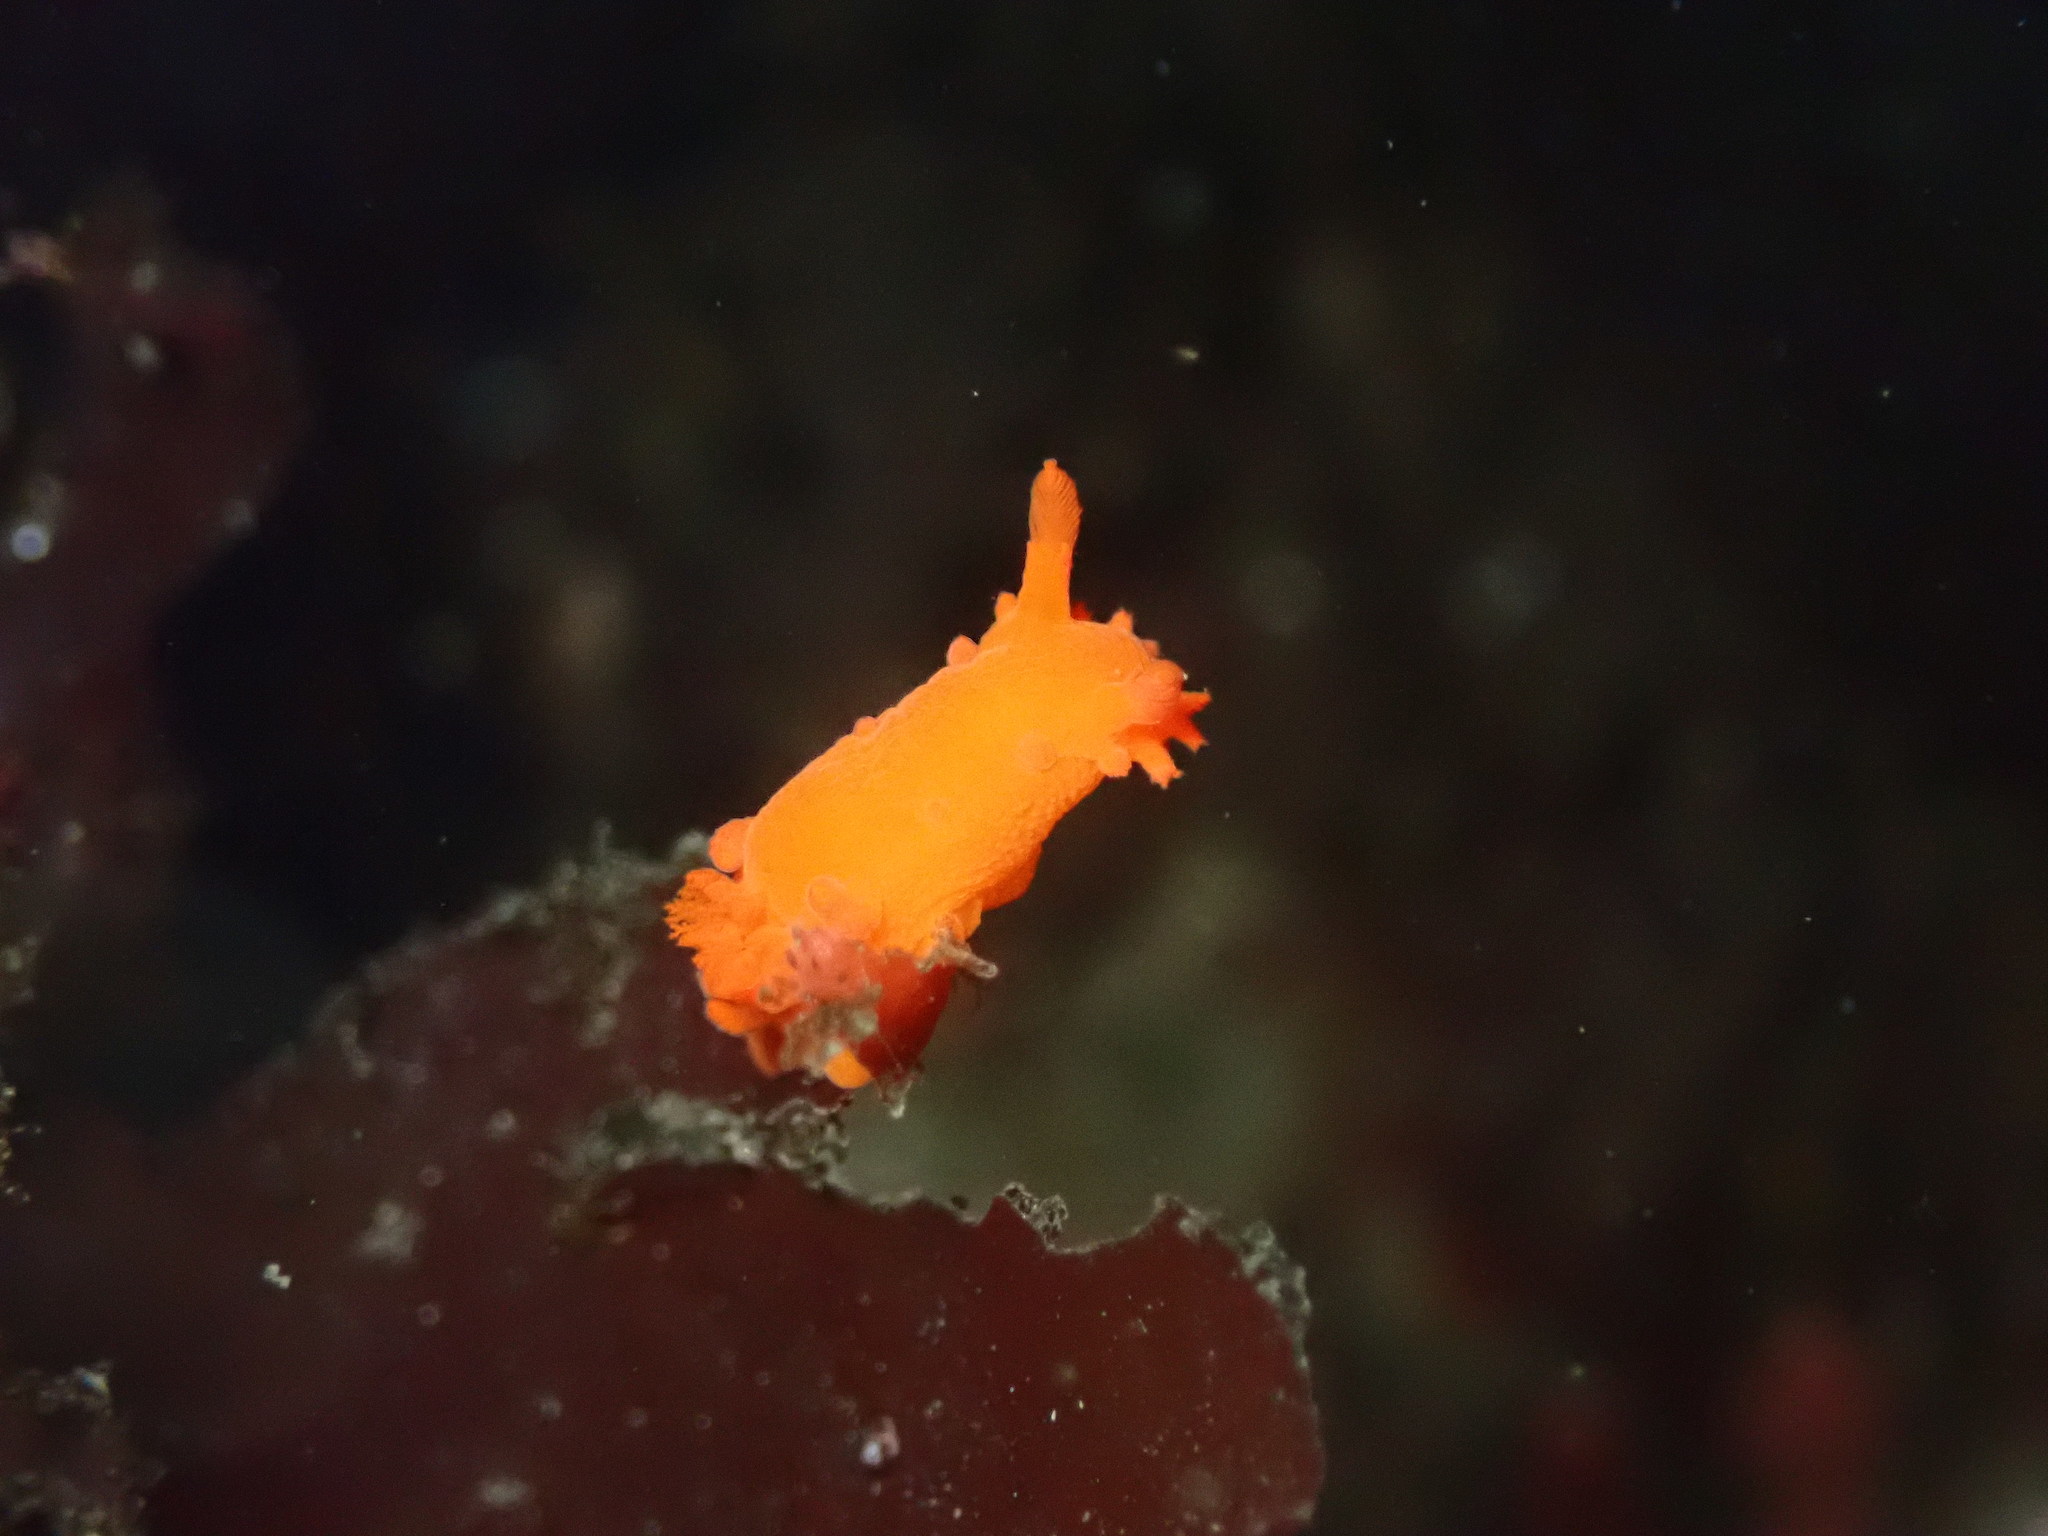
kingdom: Animalia
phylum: Mollusca
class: Gastropoda
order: Nudibranchia
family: Polyceridae
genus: Triopha
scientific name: Triopha maculata
